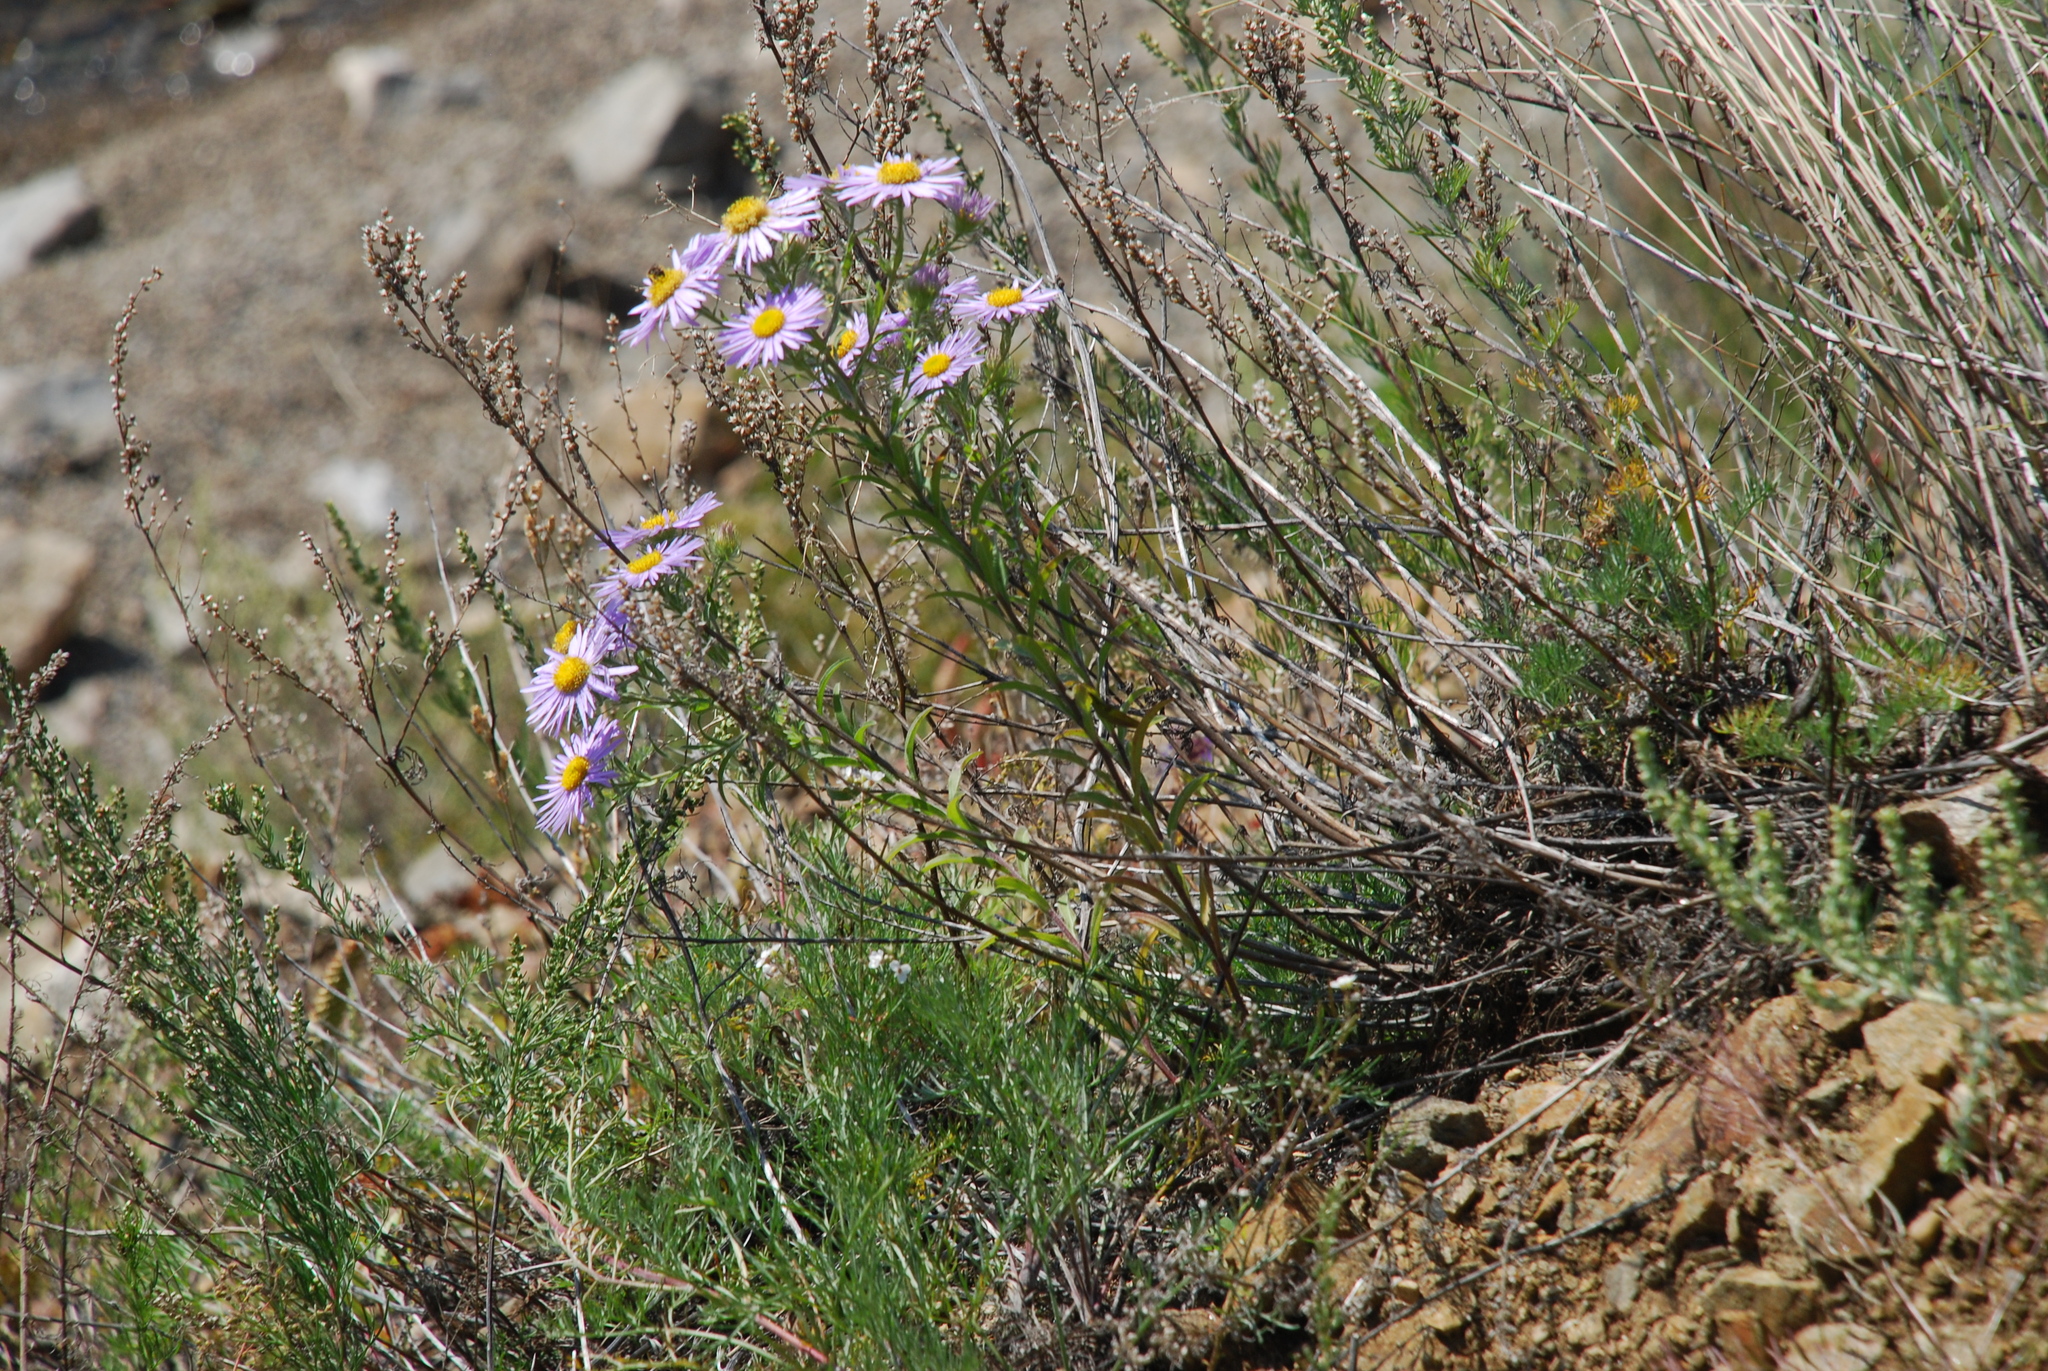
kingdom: Plantae
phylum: Tracheophyta
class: Magnoliopsida
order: Asterales
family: Asteraceae
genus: Aster
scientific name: Aster biennis
